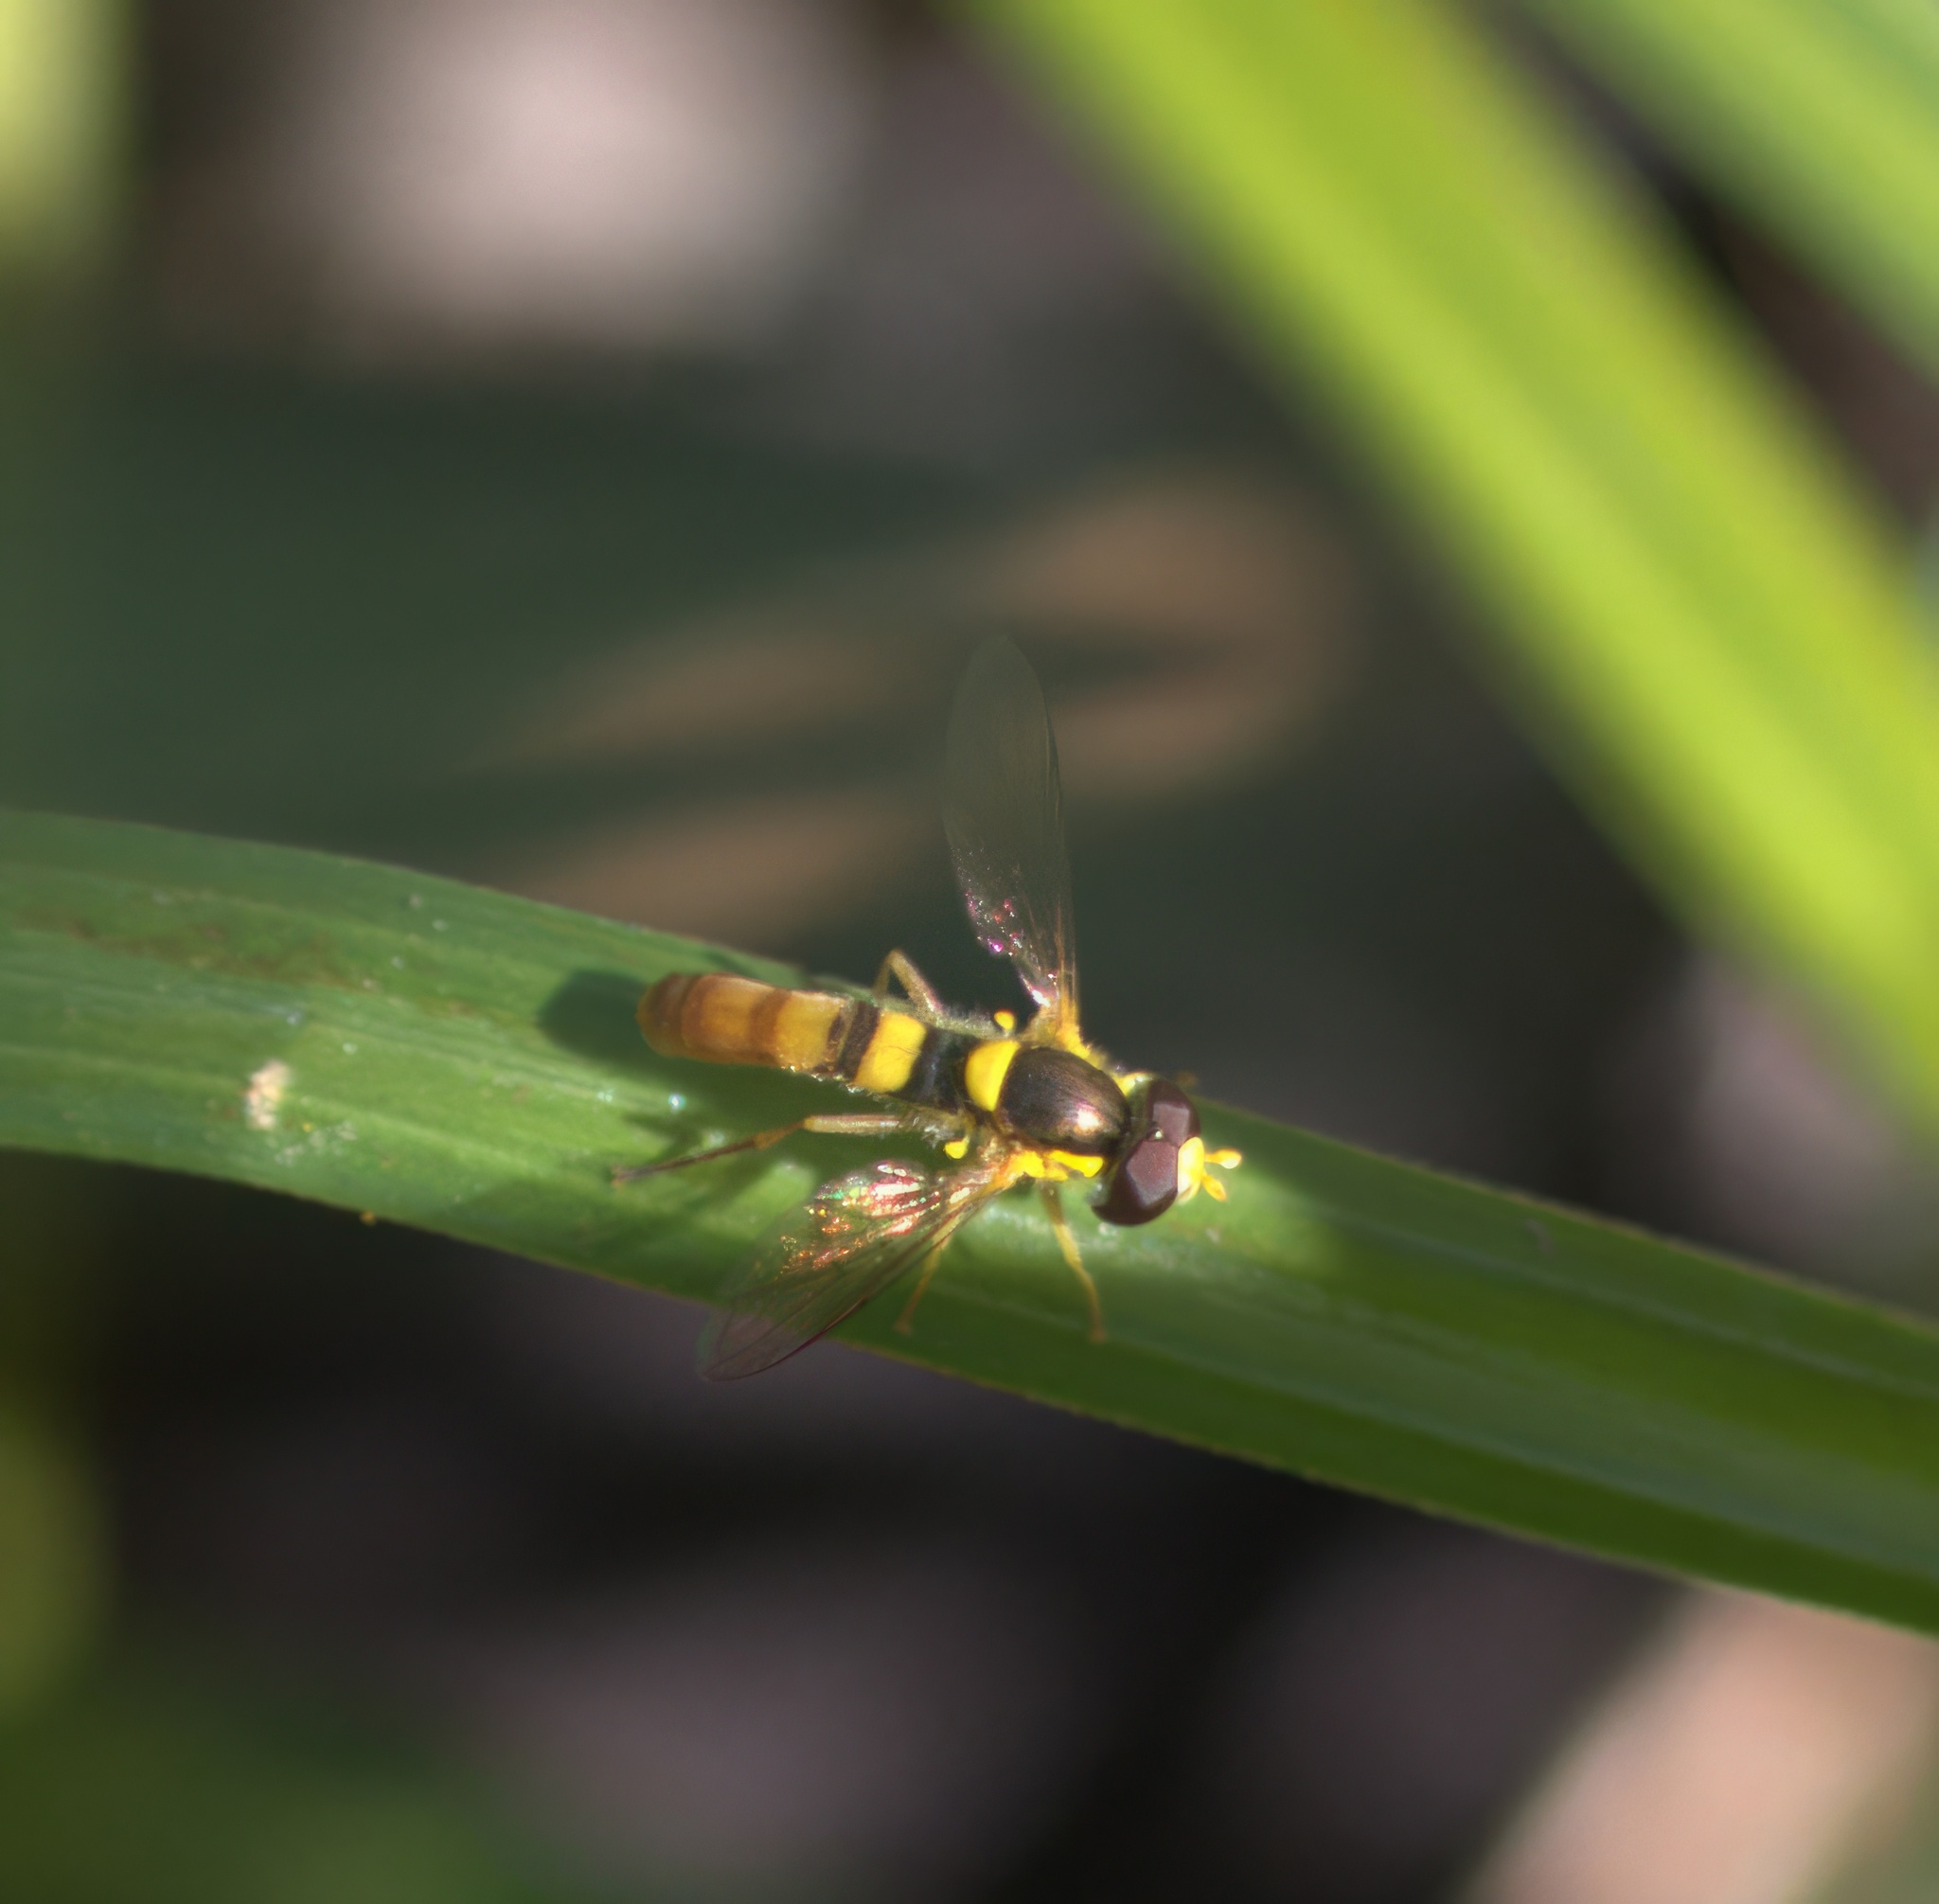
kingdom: Animalia
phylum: Arthropoda
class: Insecta
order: Diptera
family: Syrphidae
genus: Sphaerophoria
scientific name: Sphaerophoria contigua
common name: Tufted globetail
